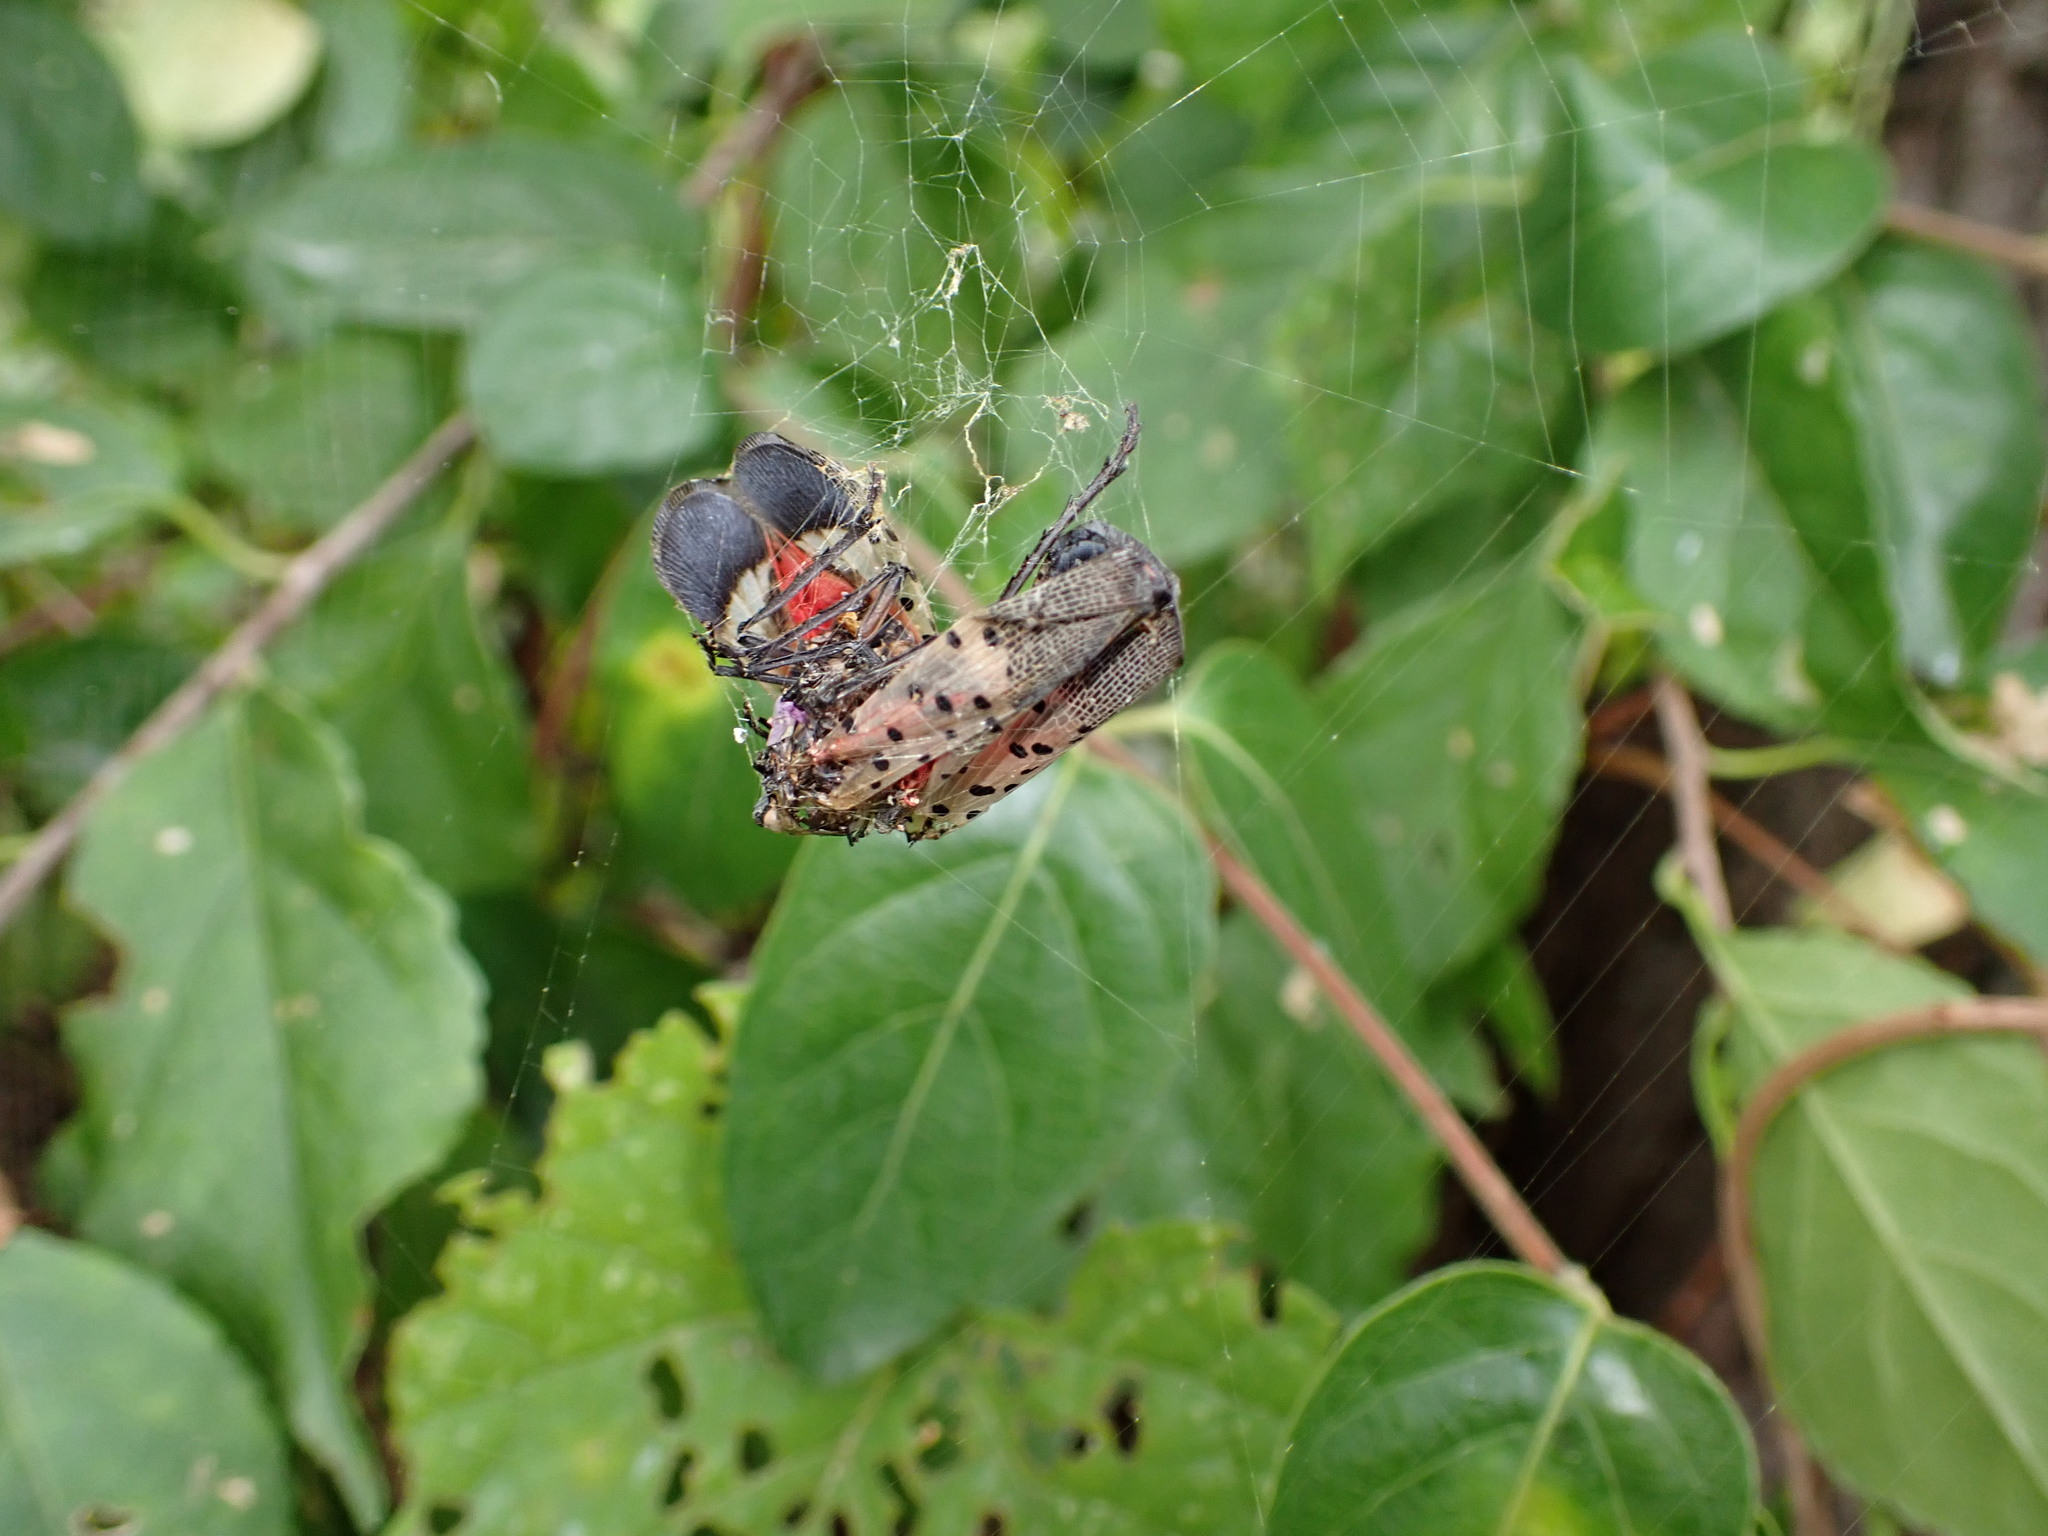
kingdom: Animalia
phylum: Arthropoda
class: Insecta
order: Hemiptera
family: Fulgoridae
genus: Lycorma
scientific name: Lycorma delicatula
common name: Spotted lanternfly
